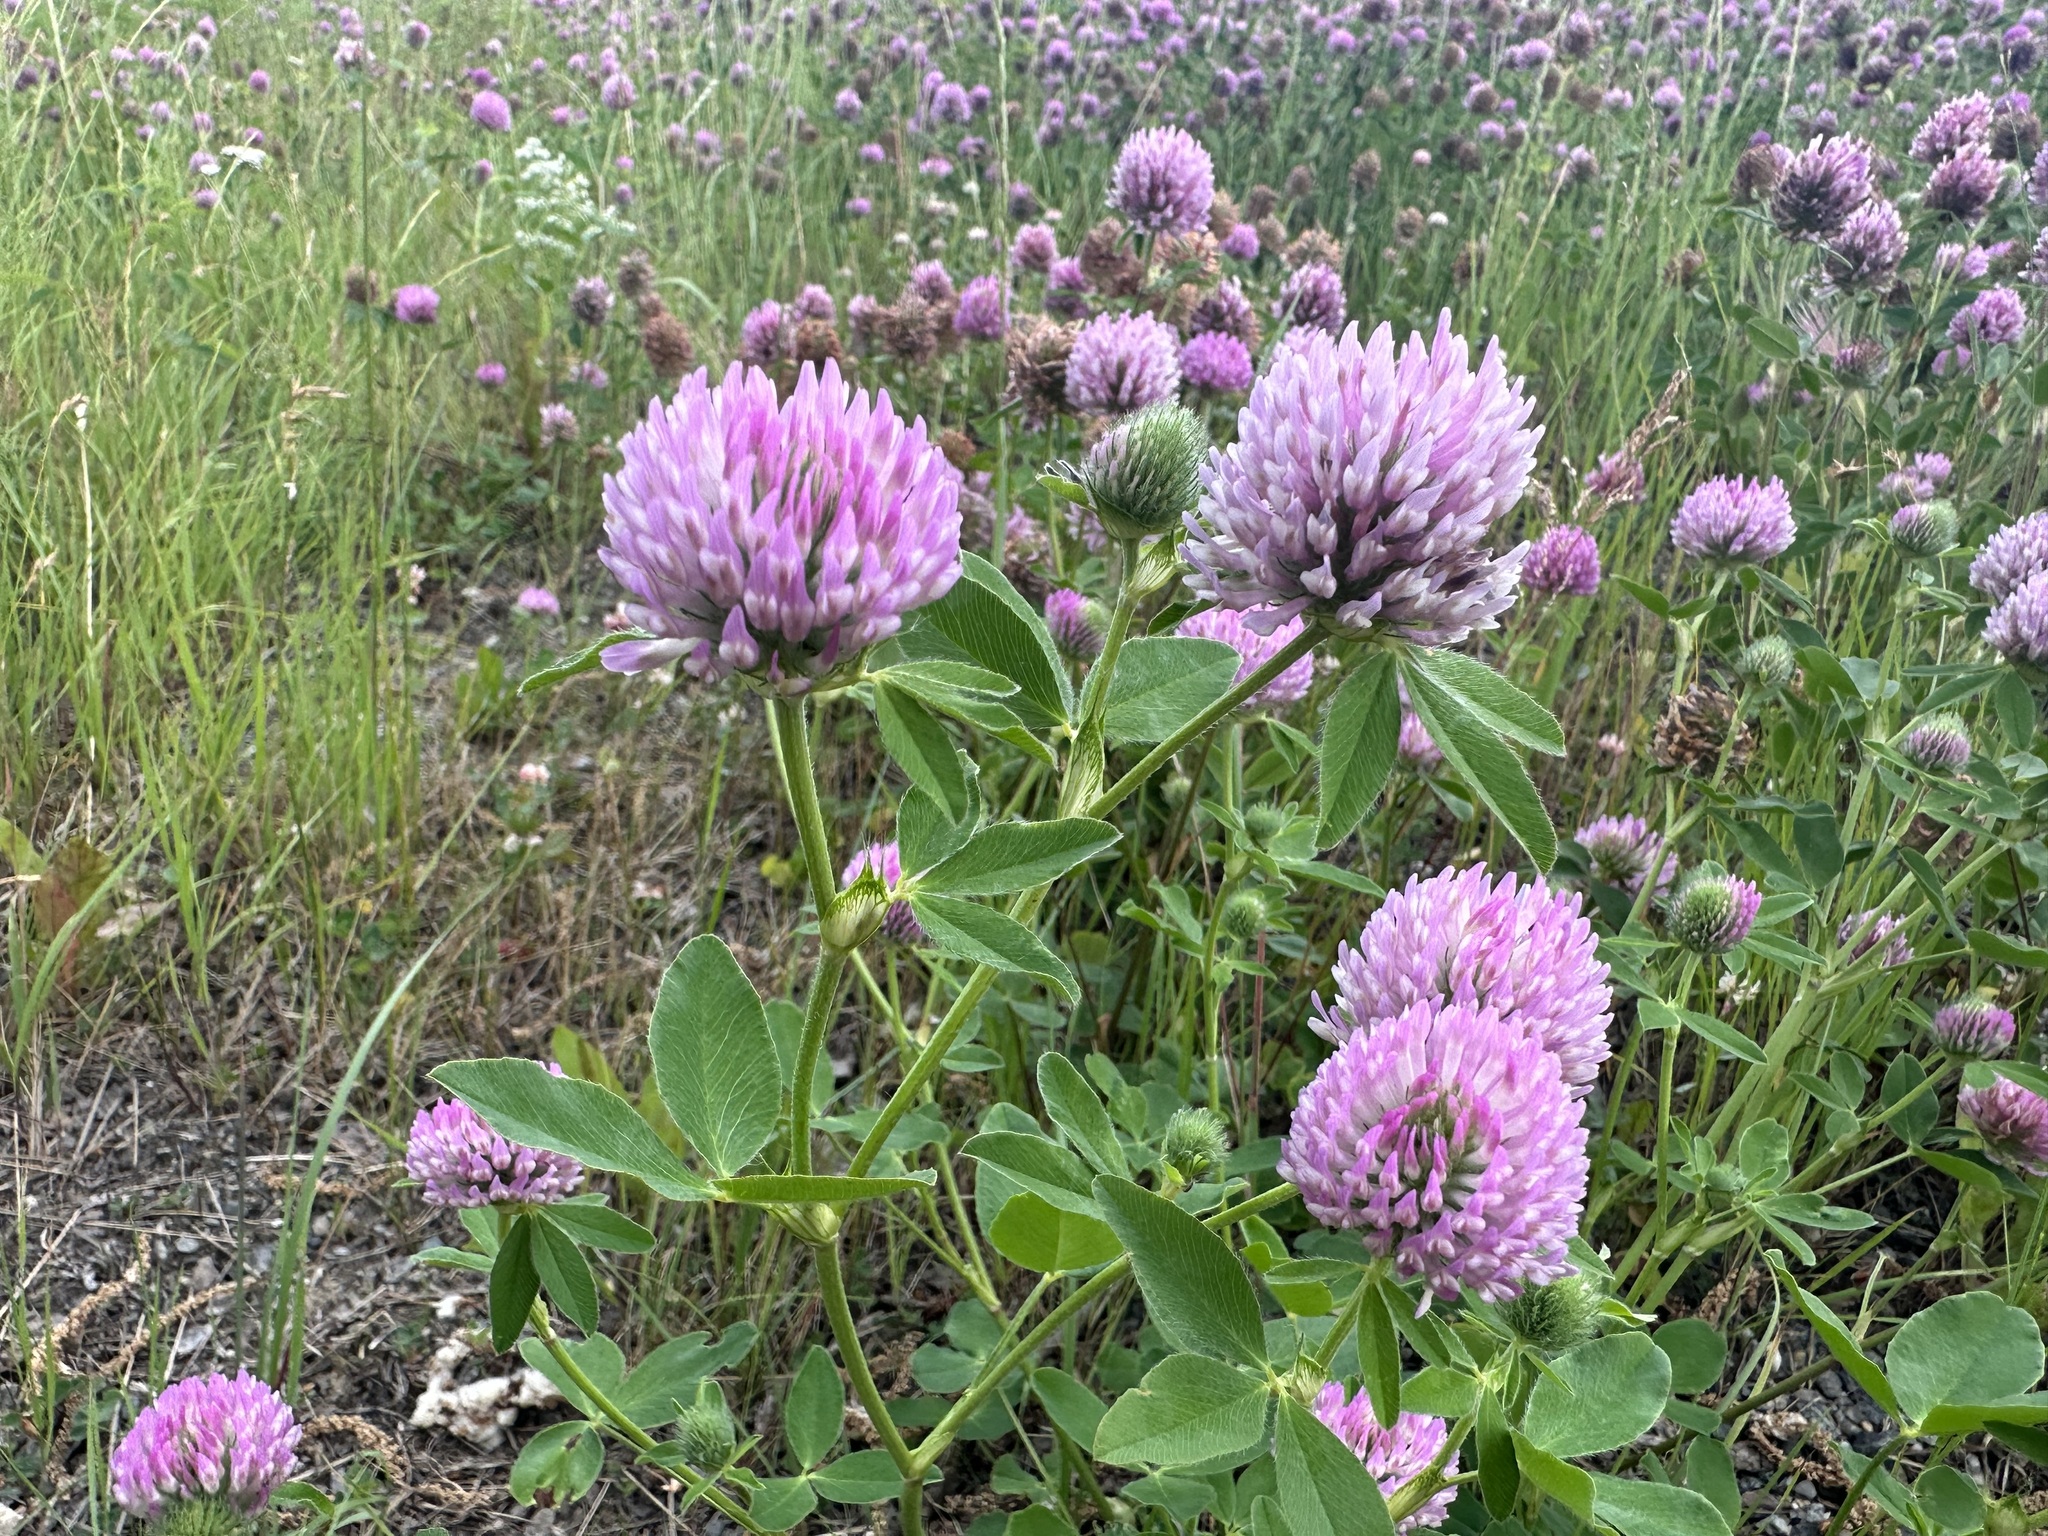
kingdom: Plantae
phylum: Tracheophyta
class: Magnoliopsida
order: Fabales
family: Fabaceae
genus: Trifolium
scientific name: Trifolium pratense
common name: Red clover
